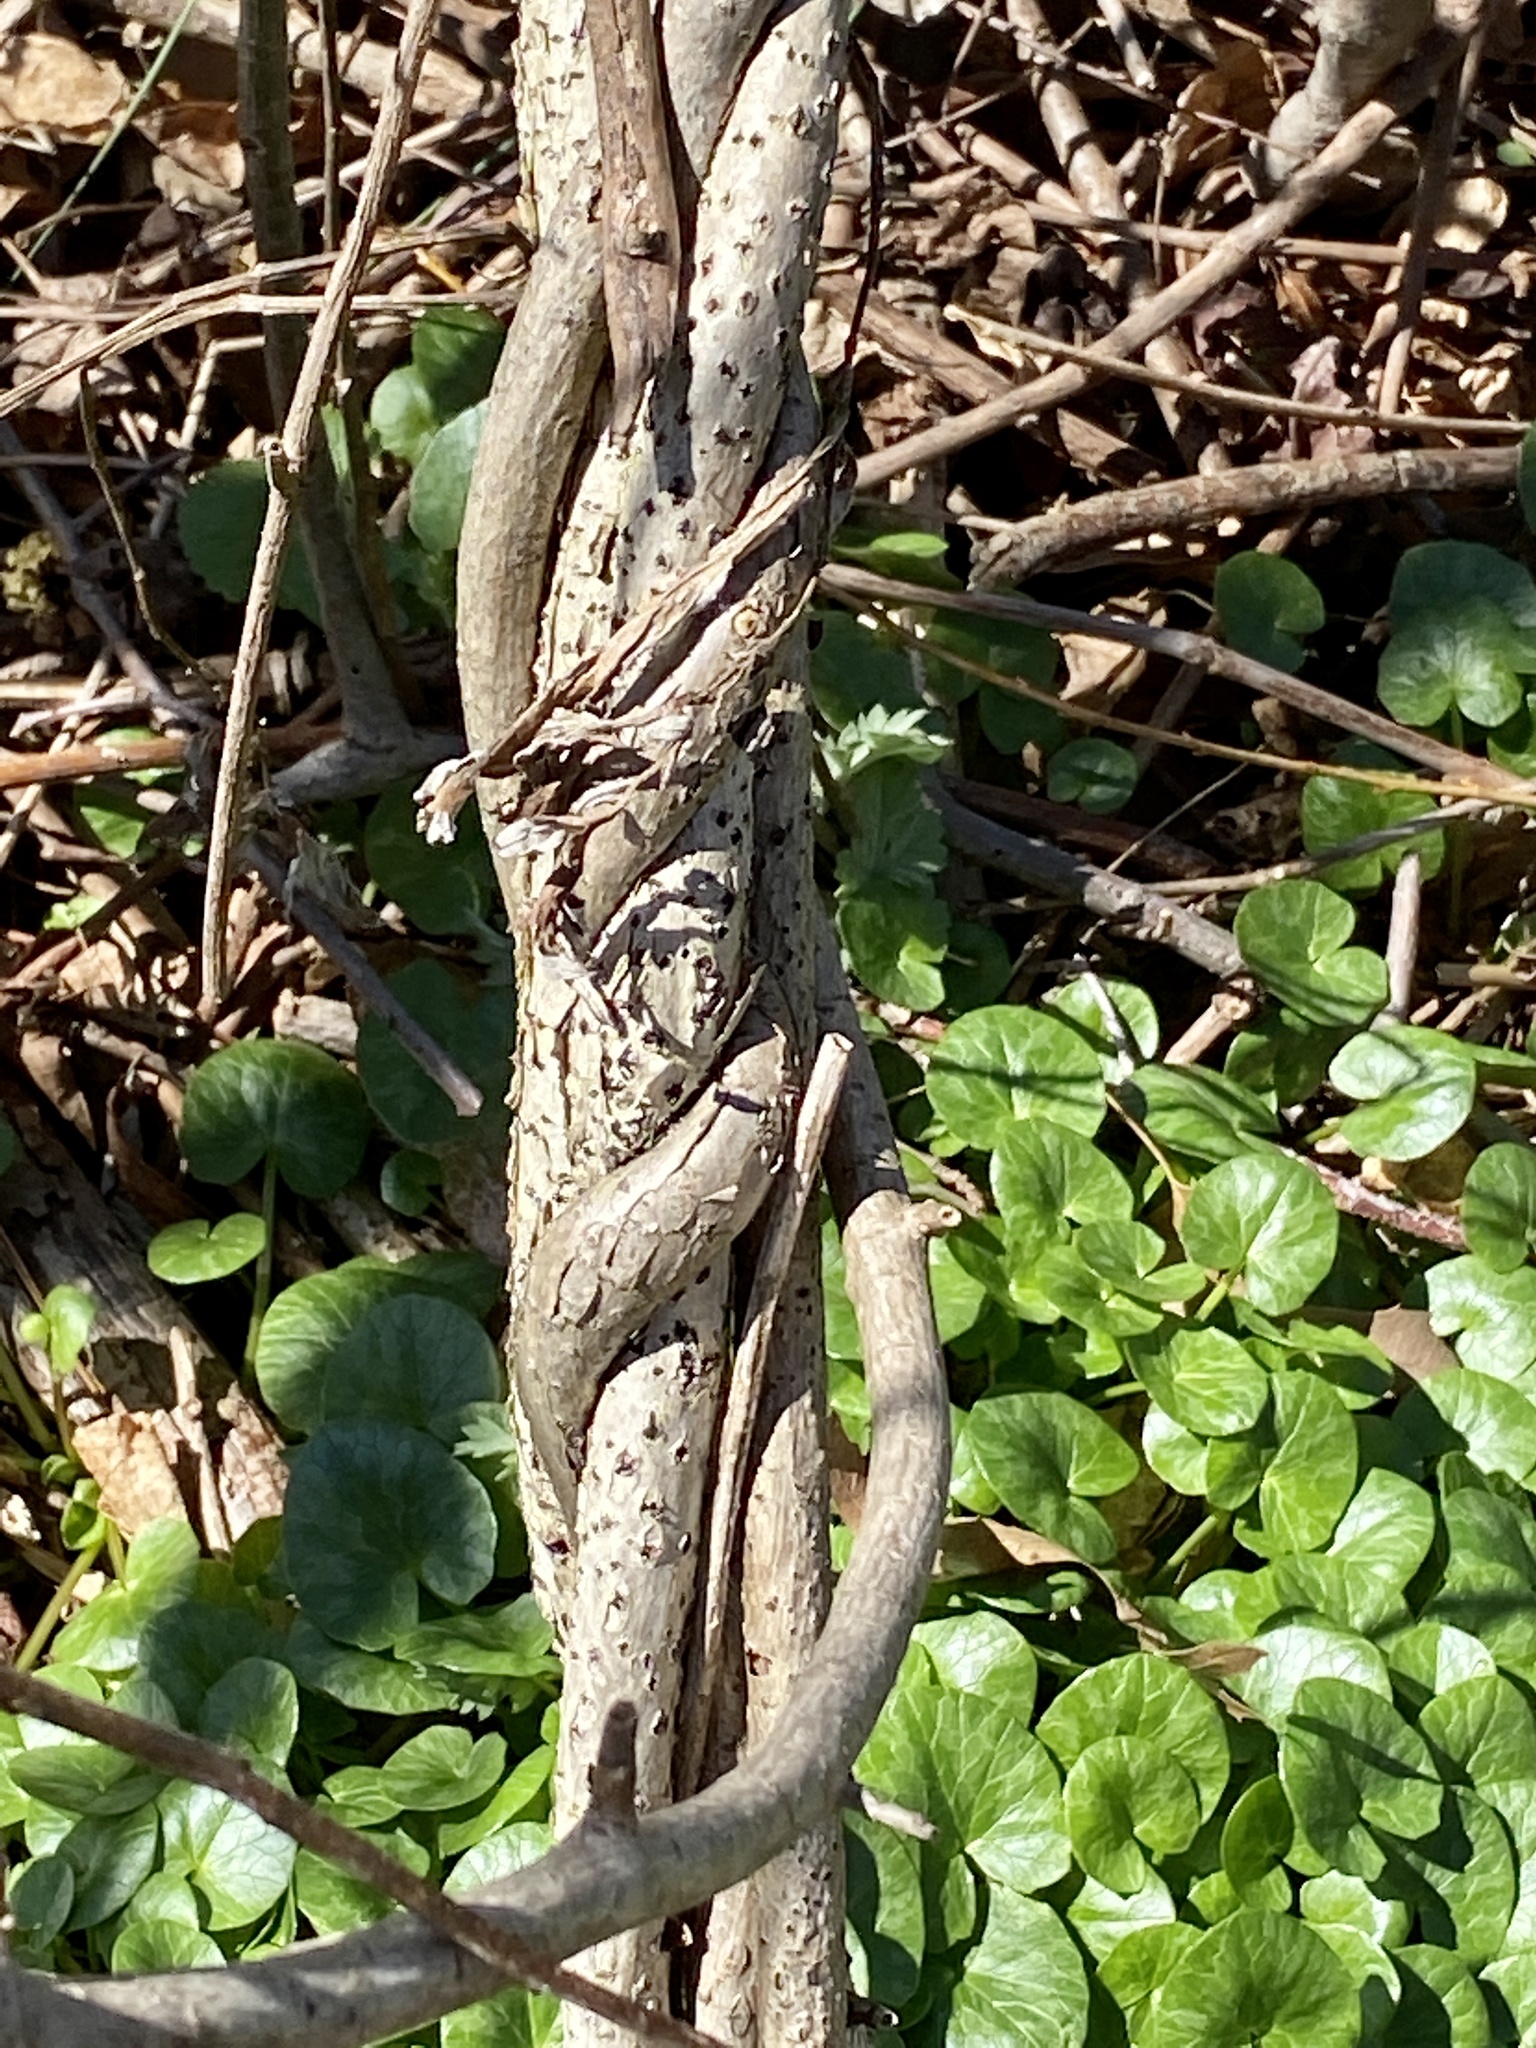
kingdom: Plantae
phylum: Tracheophyta
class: Magnoliopsida
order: Celastrales
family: Celastraceae
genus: Celastrus
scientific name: Celastrus orbiculatus
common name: Oriental bittersweet
